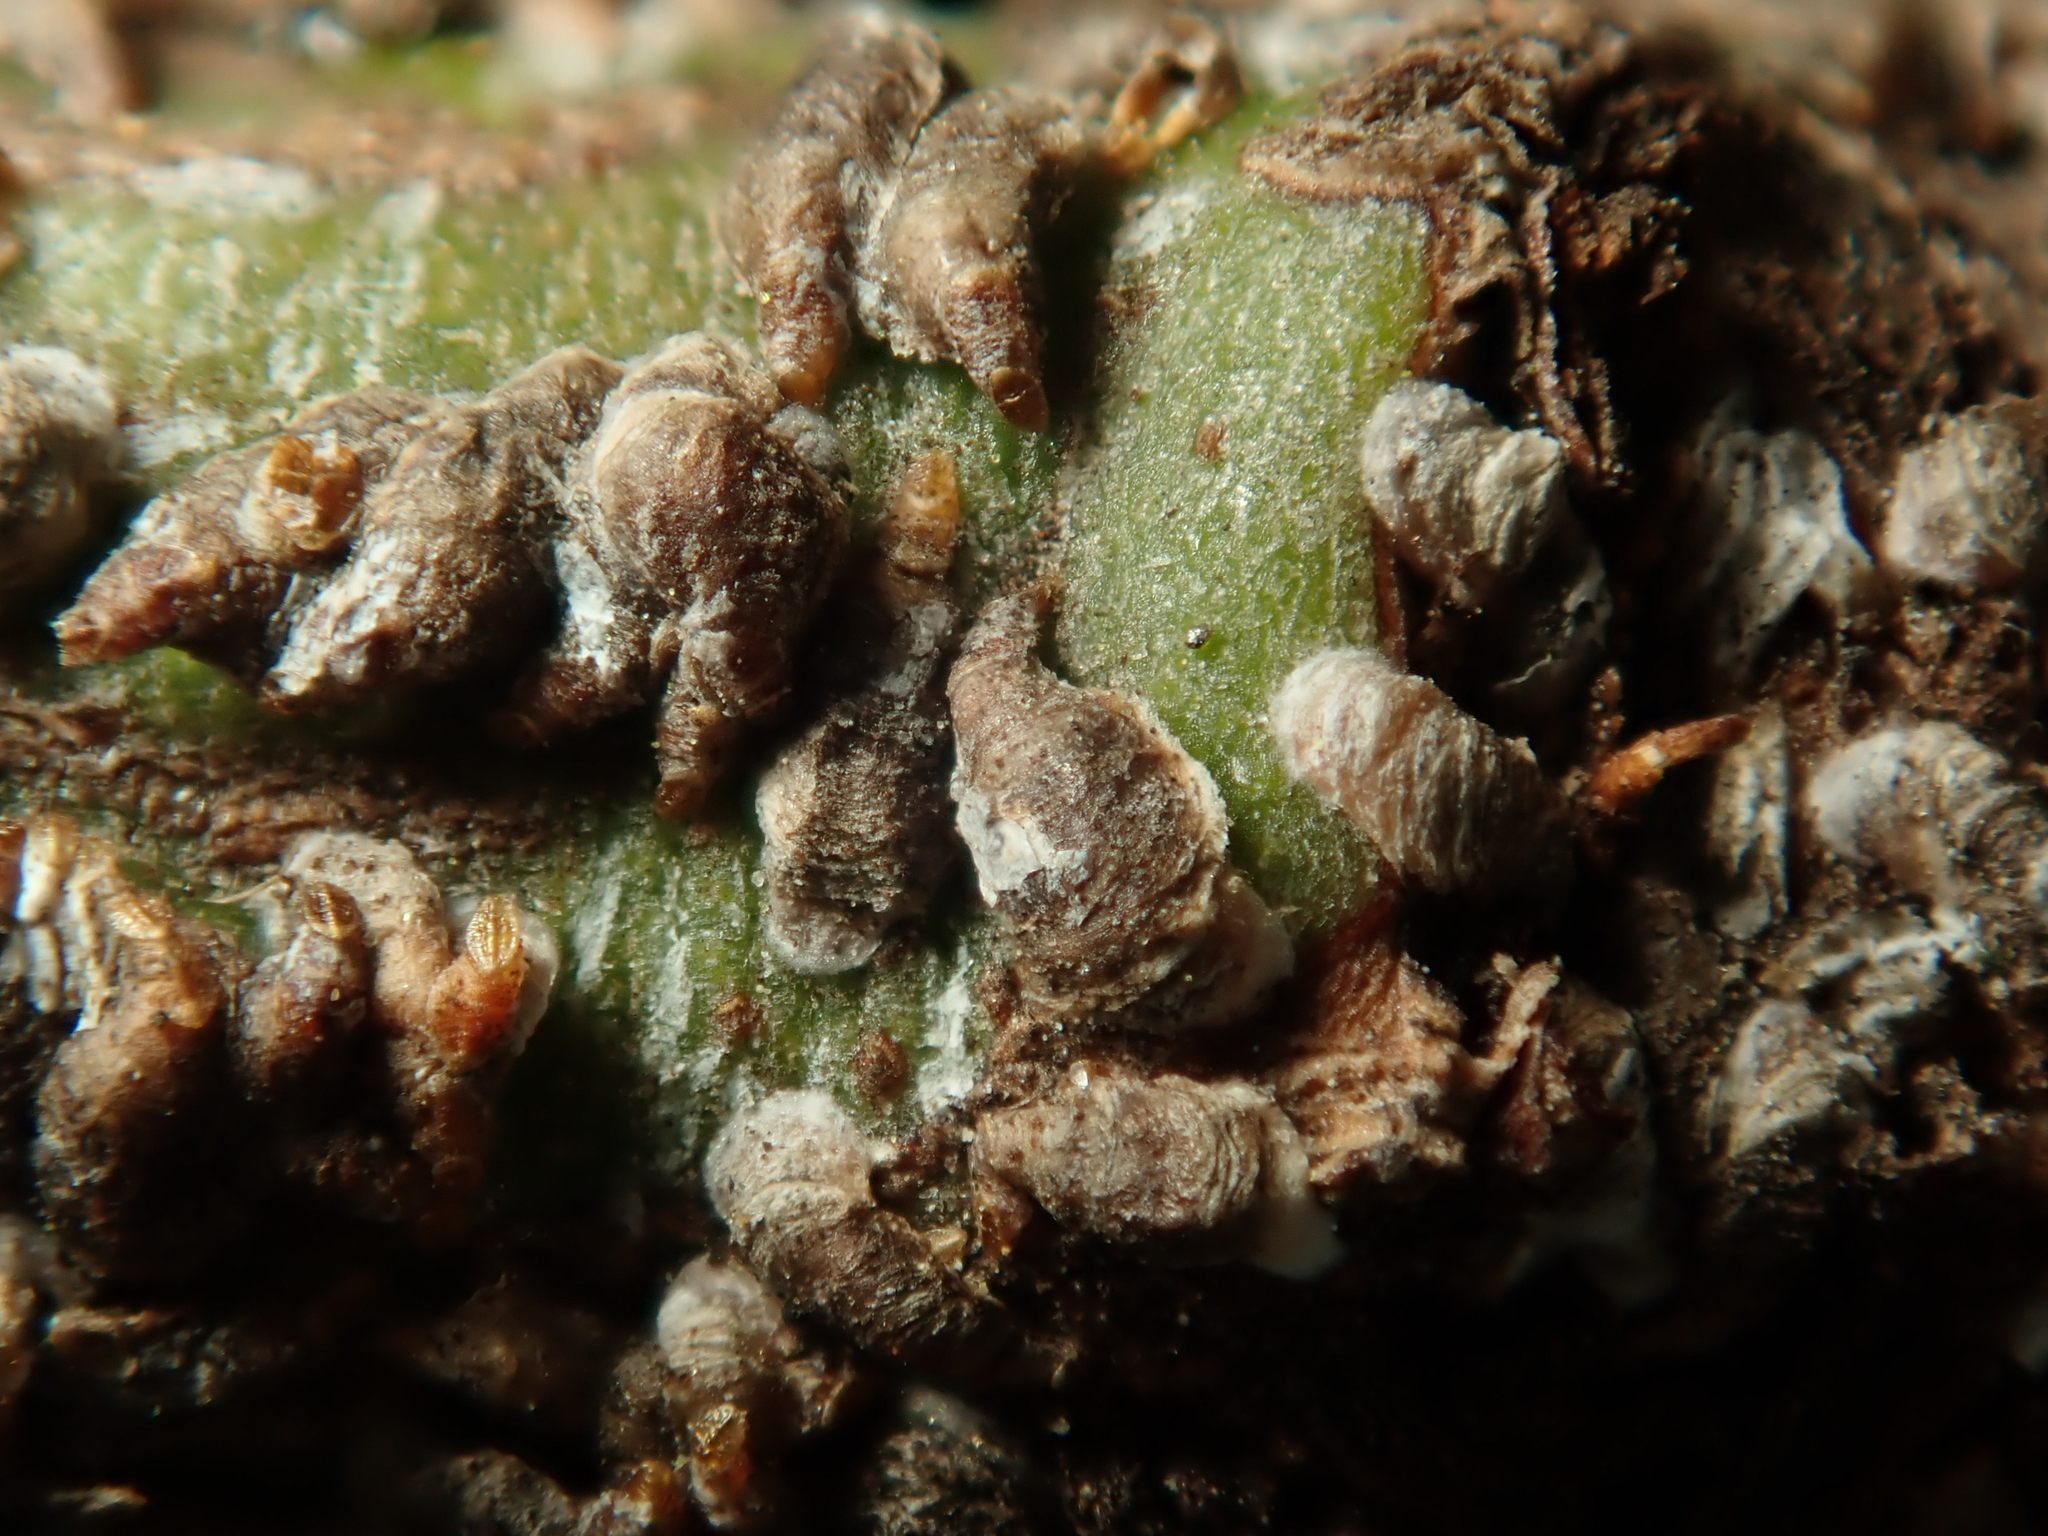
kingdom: Animalia
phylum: Arthropoda
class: Insecta
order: Hemiptera
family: Diaspididae
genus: Unaspis
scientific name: Unaspis euonymi
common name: Euonymus scale
